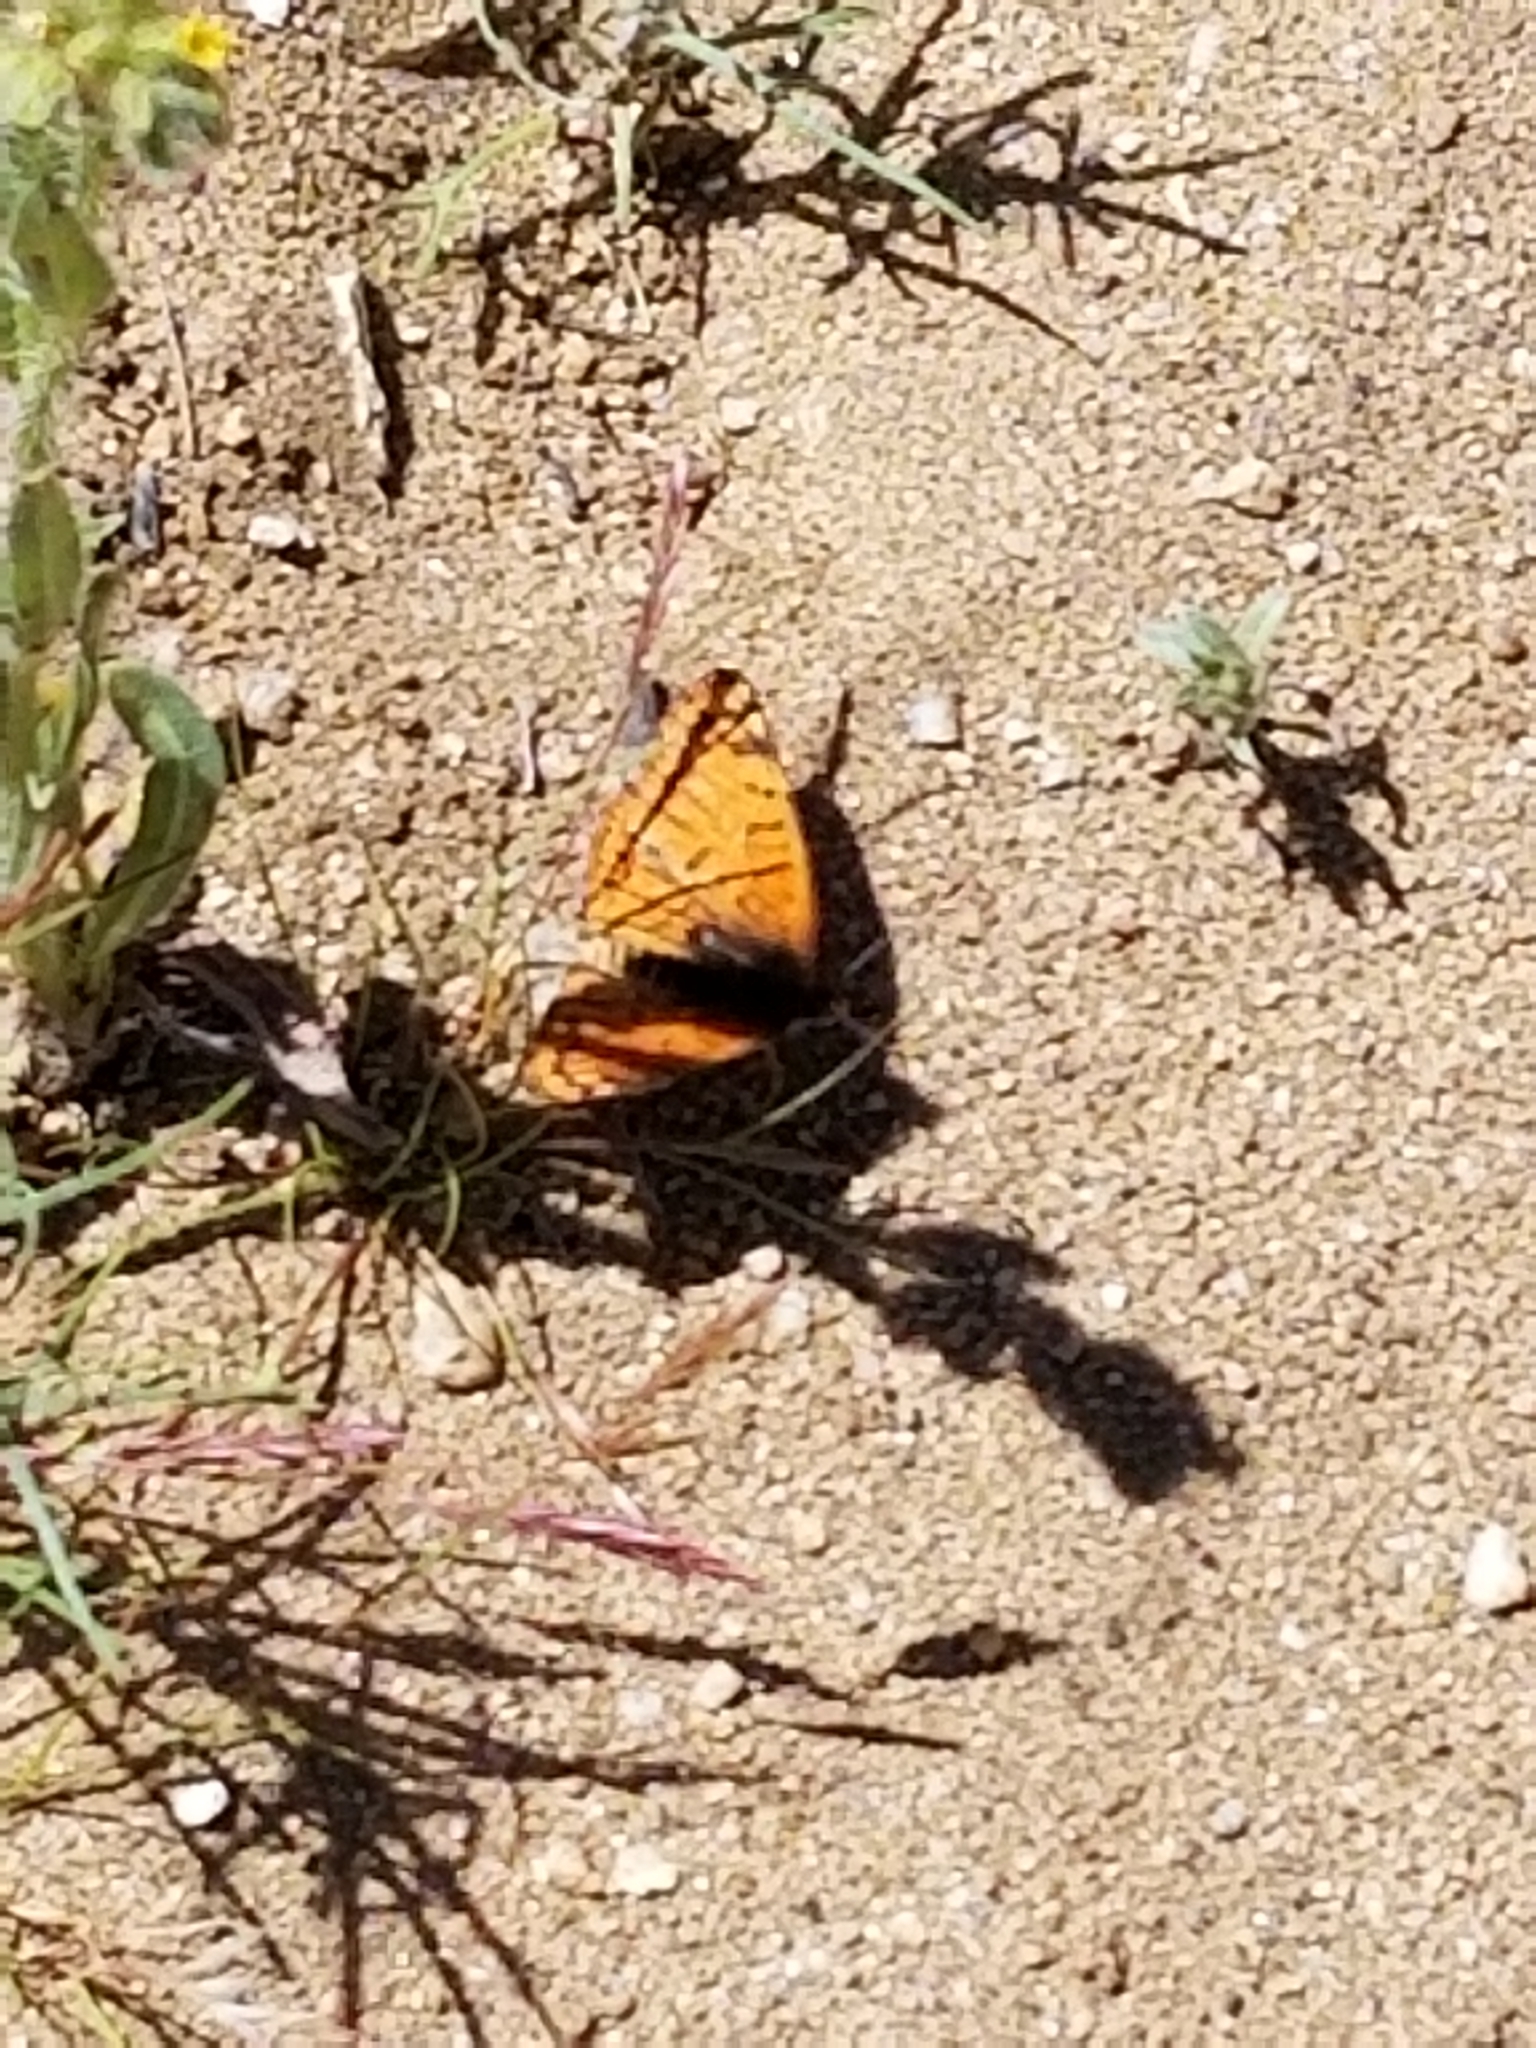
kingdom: Animalia
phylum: Arthropoda
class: Insecta
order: Lepidoptera
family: Nymphalidae
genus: Chlosyne
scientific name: Chlosyne acastus
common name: Sagebrush checkerspot
